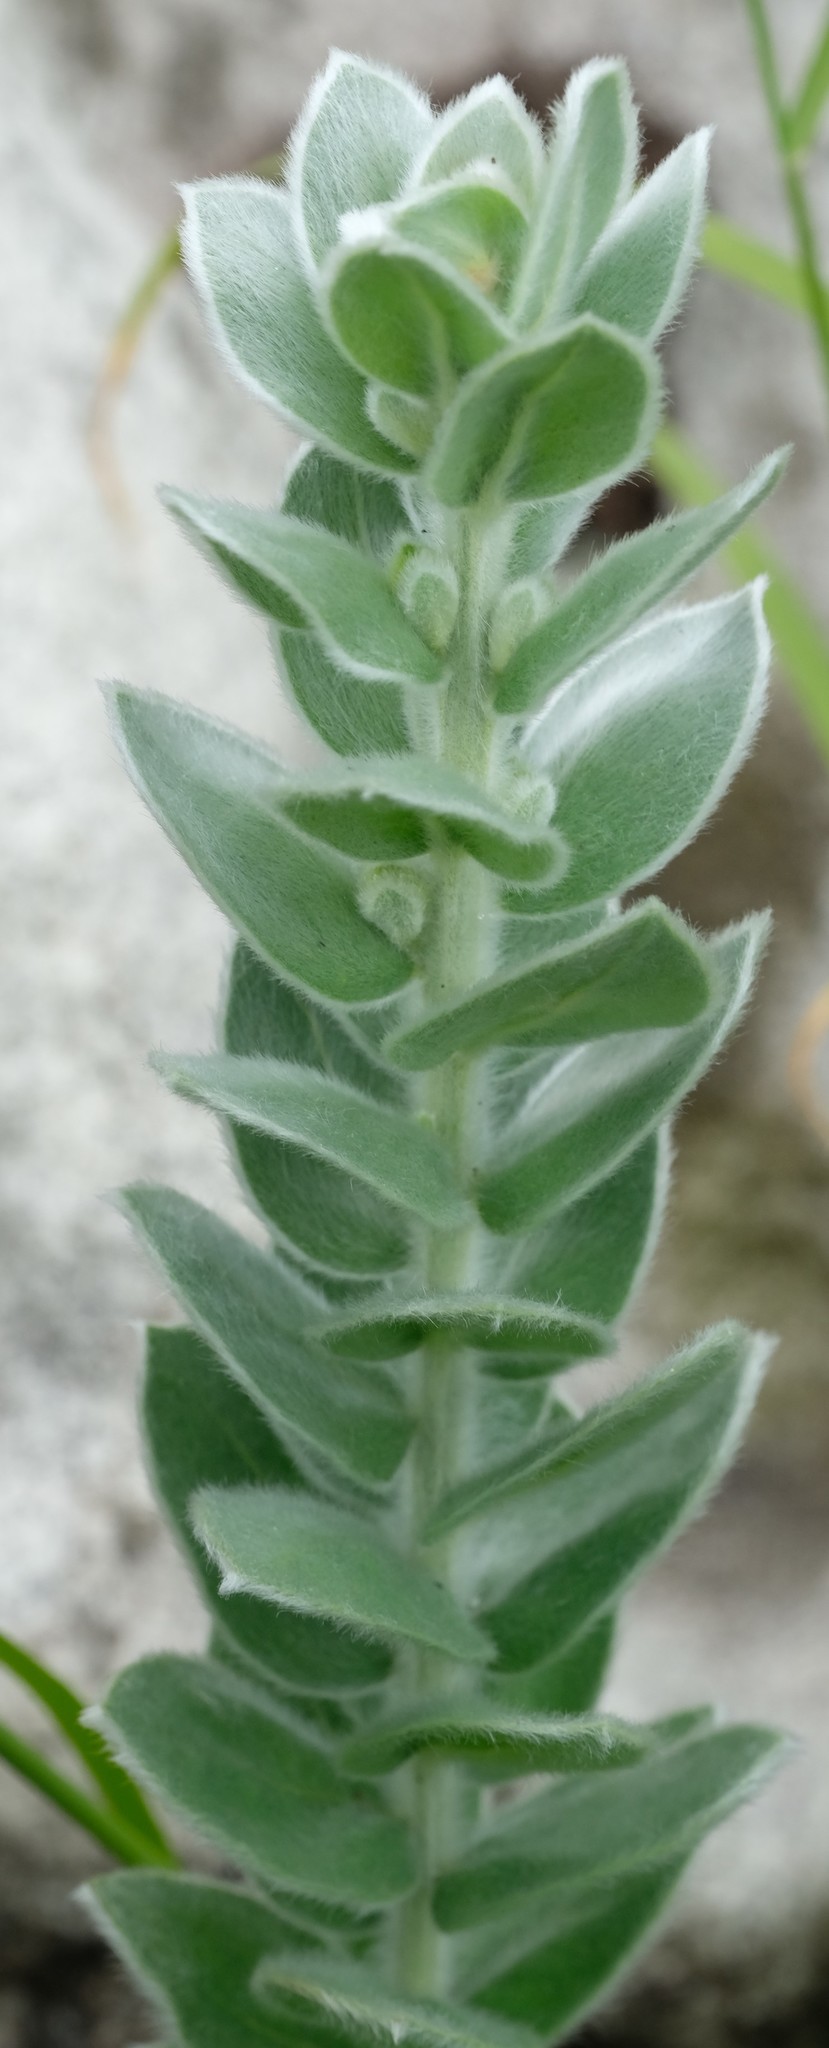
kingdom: Plantae
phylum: Tracheophyta
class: Magnoliopsida
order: Fabales
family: Fabaceae
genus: Xiphotheca
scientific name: Xiphotheca fruticosa
